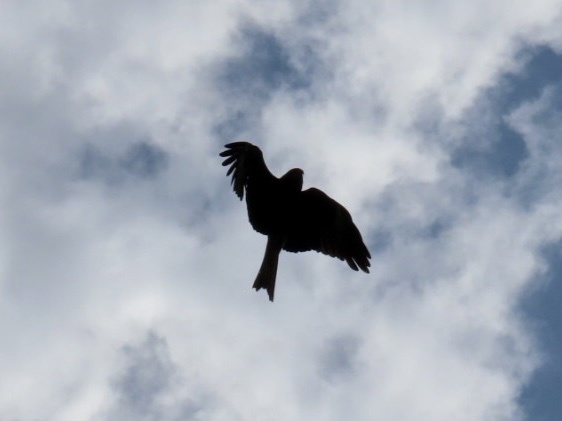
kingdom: Animalia
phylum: Chordata
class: Aves
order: Accipitriformes
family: Accipitridae
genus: Milvus
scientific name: Milvus migrans
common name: Black kite
